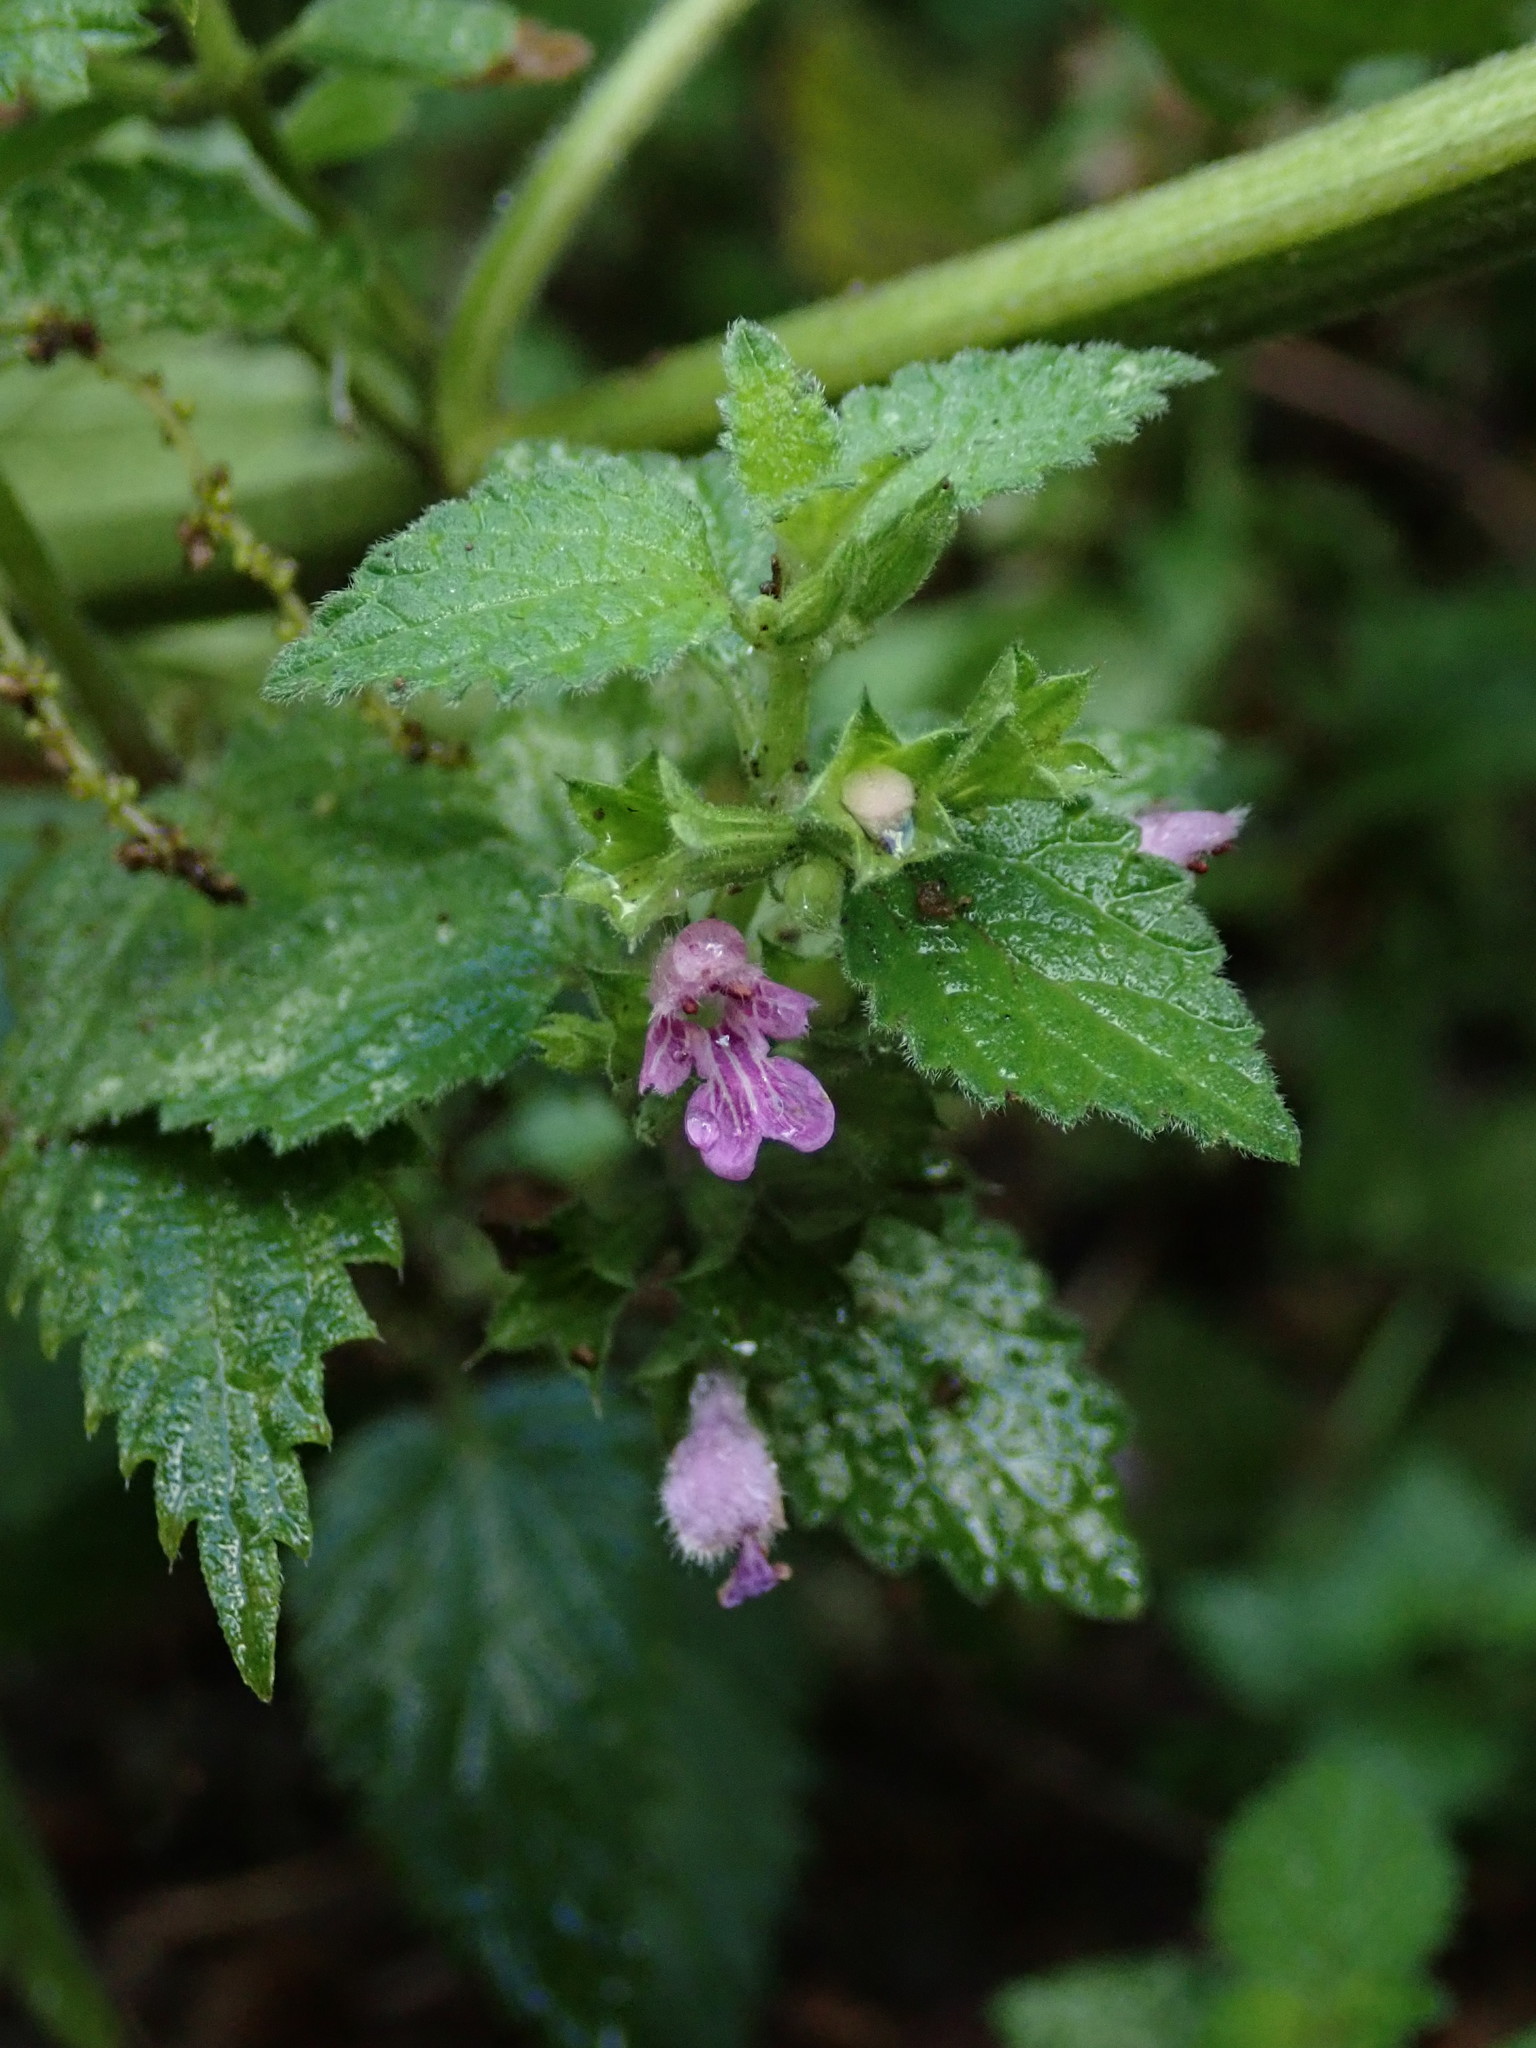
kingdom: Plantae
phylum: Tracheophyta
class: Magnoliopsida
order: Lamiales
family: Lamiaceae
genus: Ballota
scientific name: Ballota nigra
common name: Black horehound
